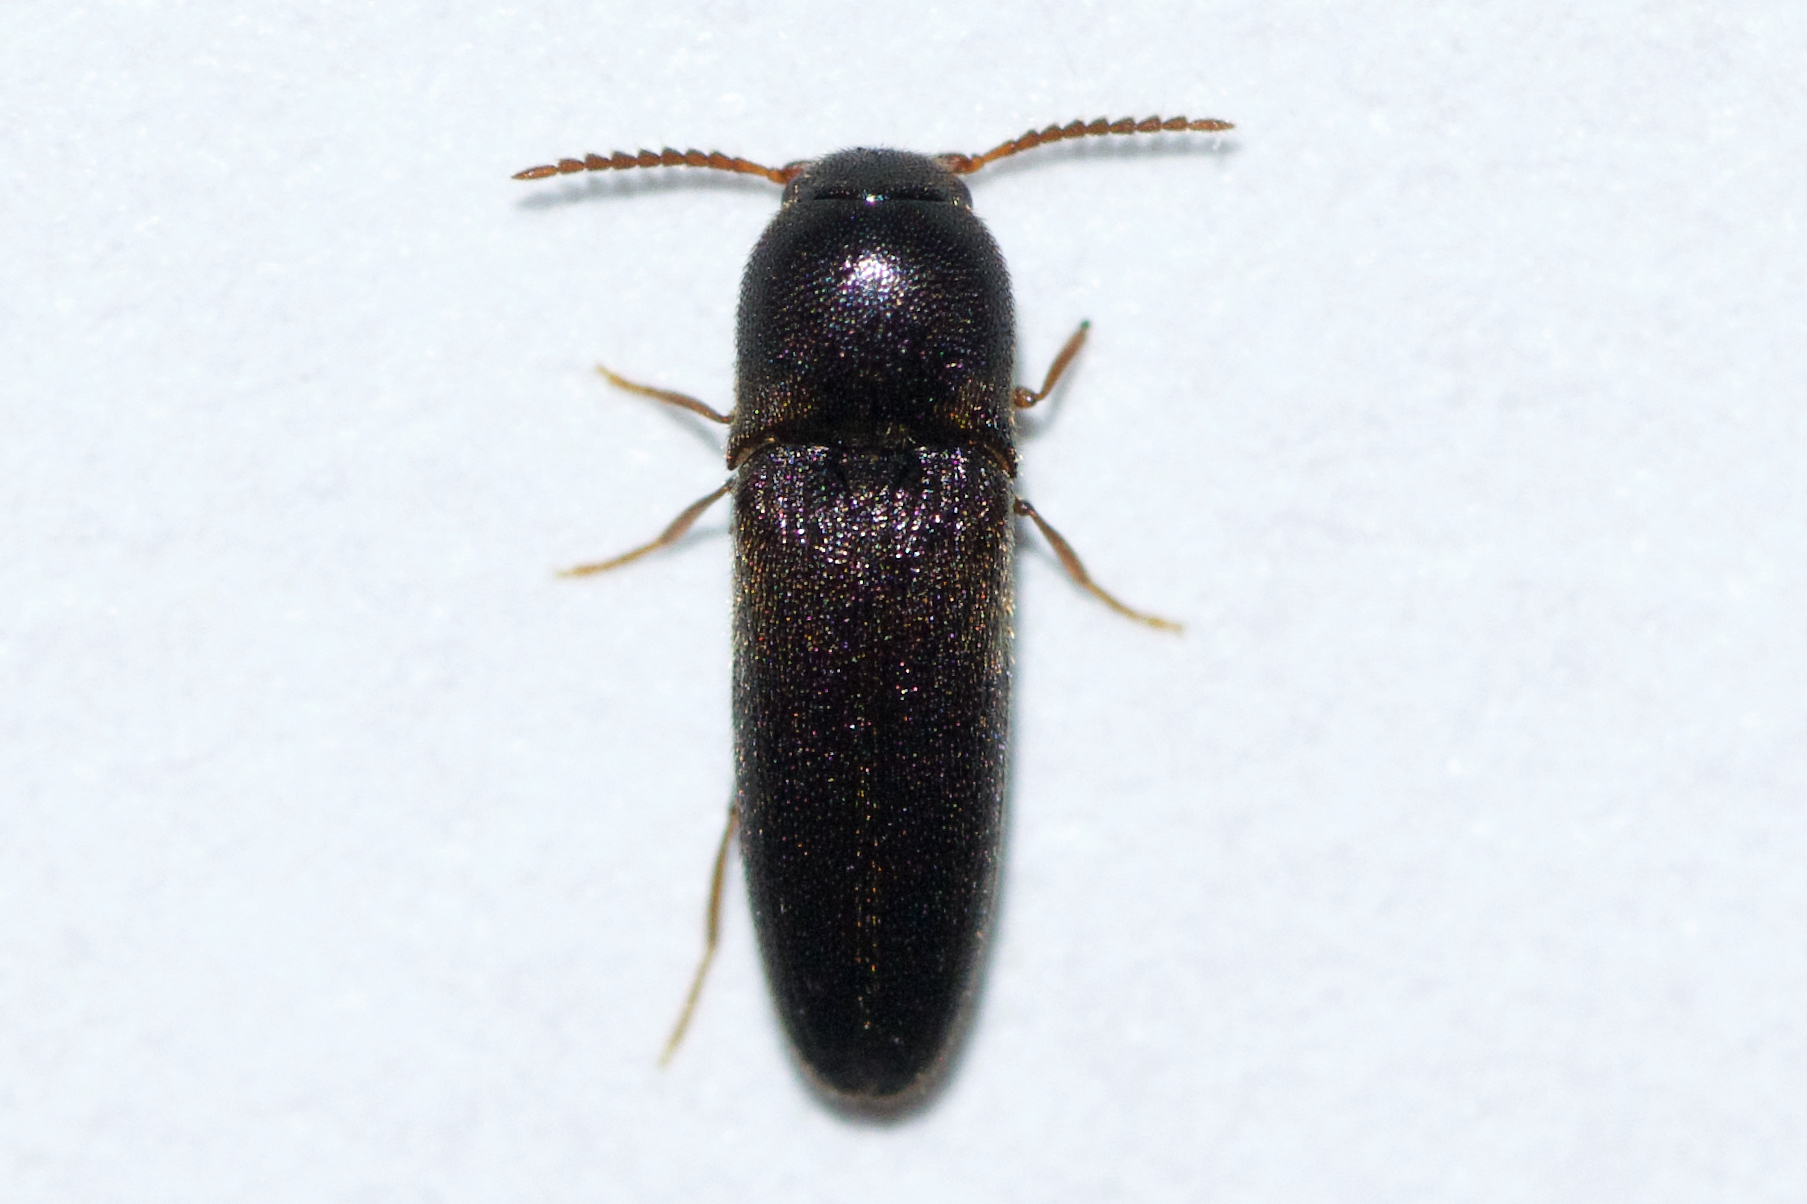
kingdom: Animalia
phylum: Arthropoda
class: Insecta
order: Coleoptera
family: Eucnemidae
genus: Deltometopus
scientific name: Deltometopus amoenicornis
